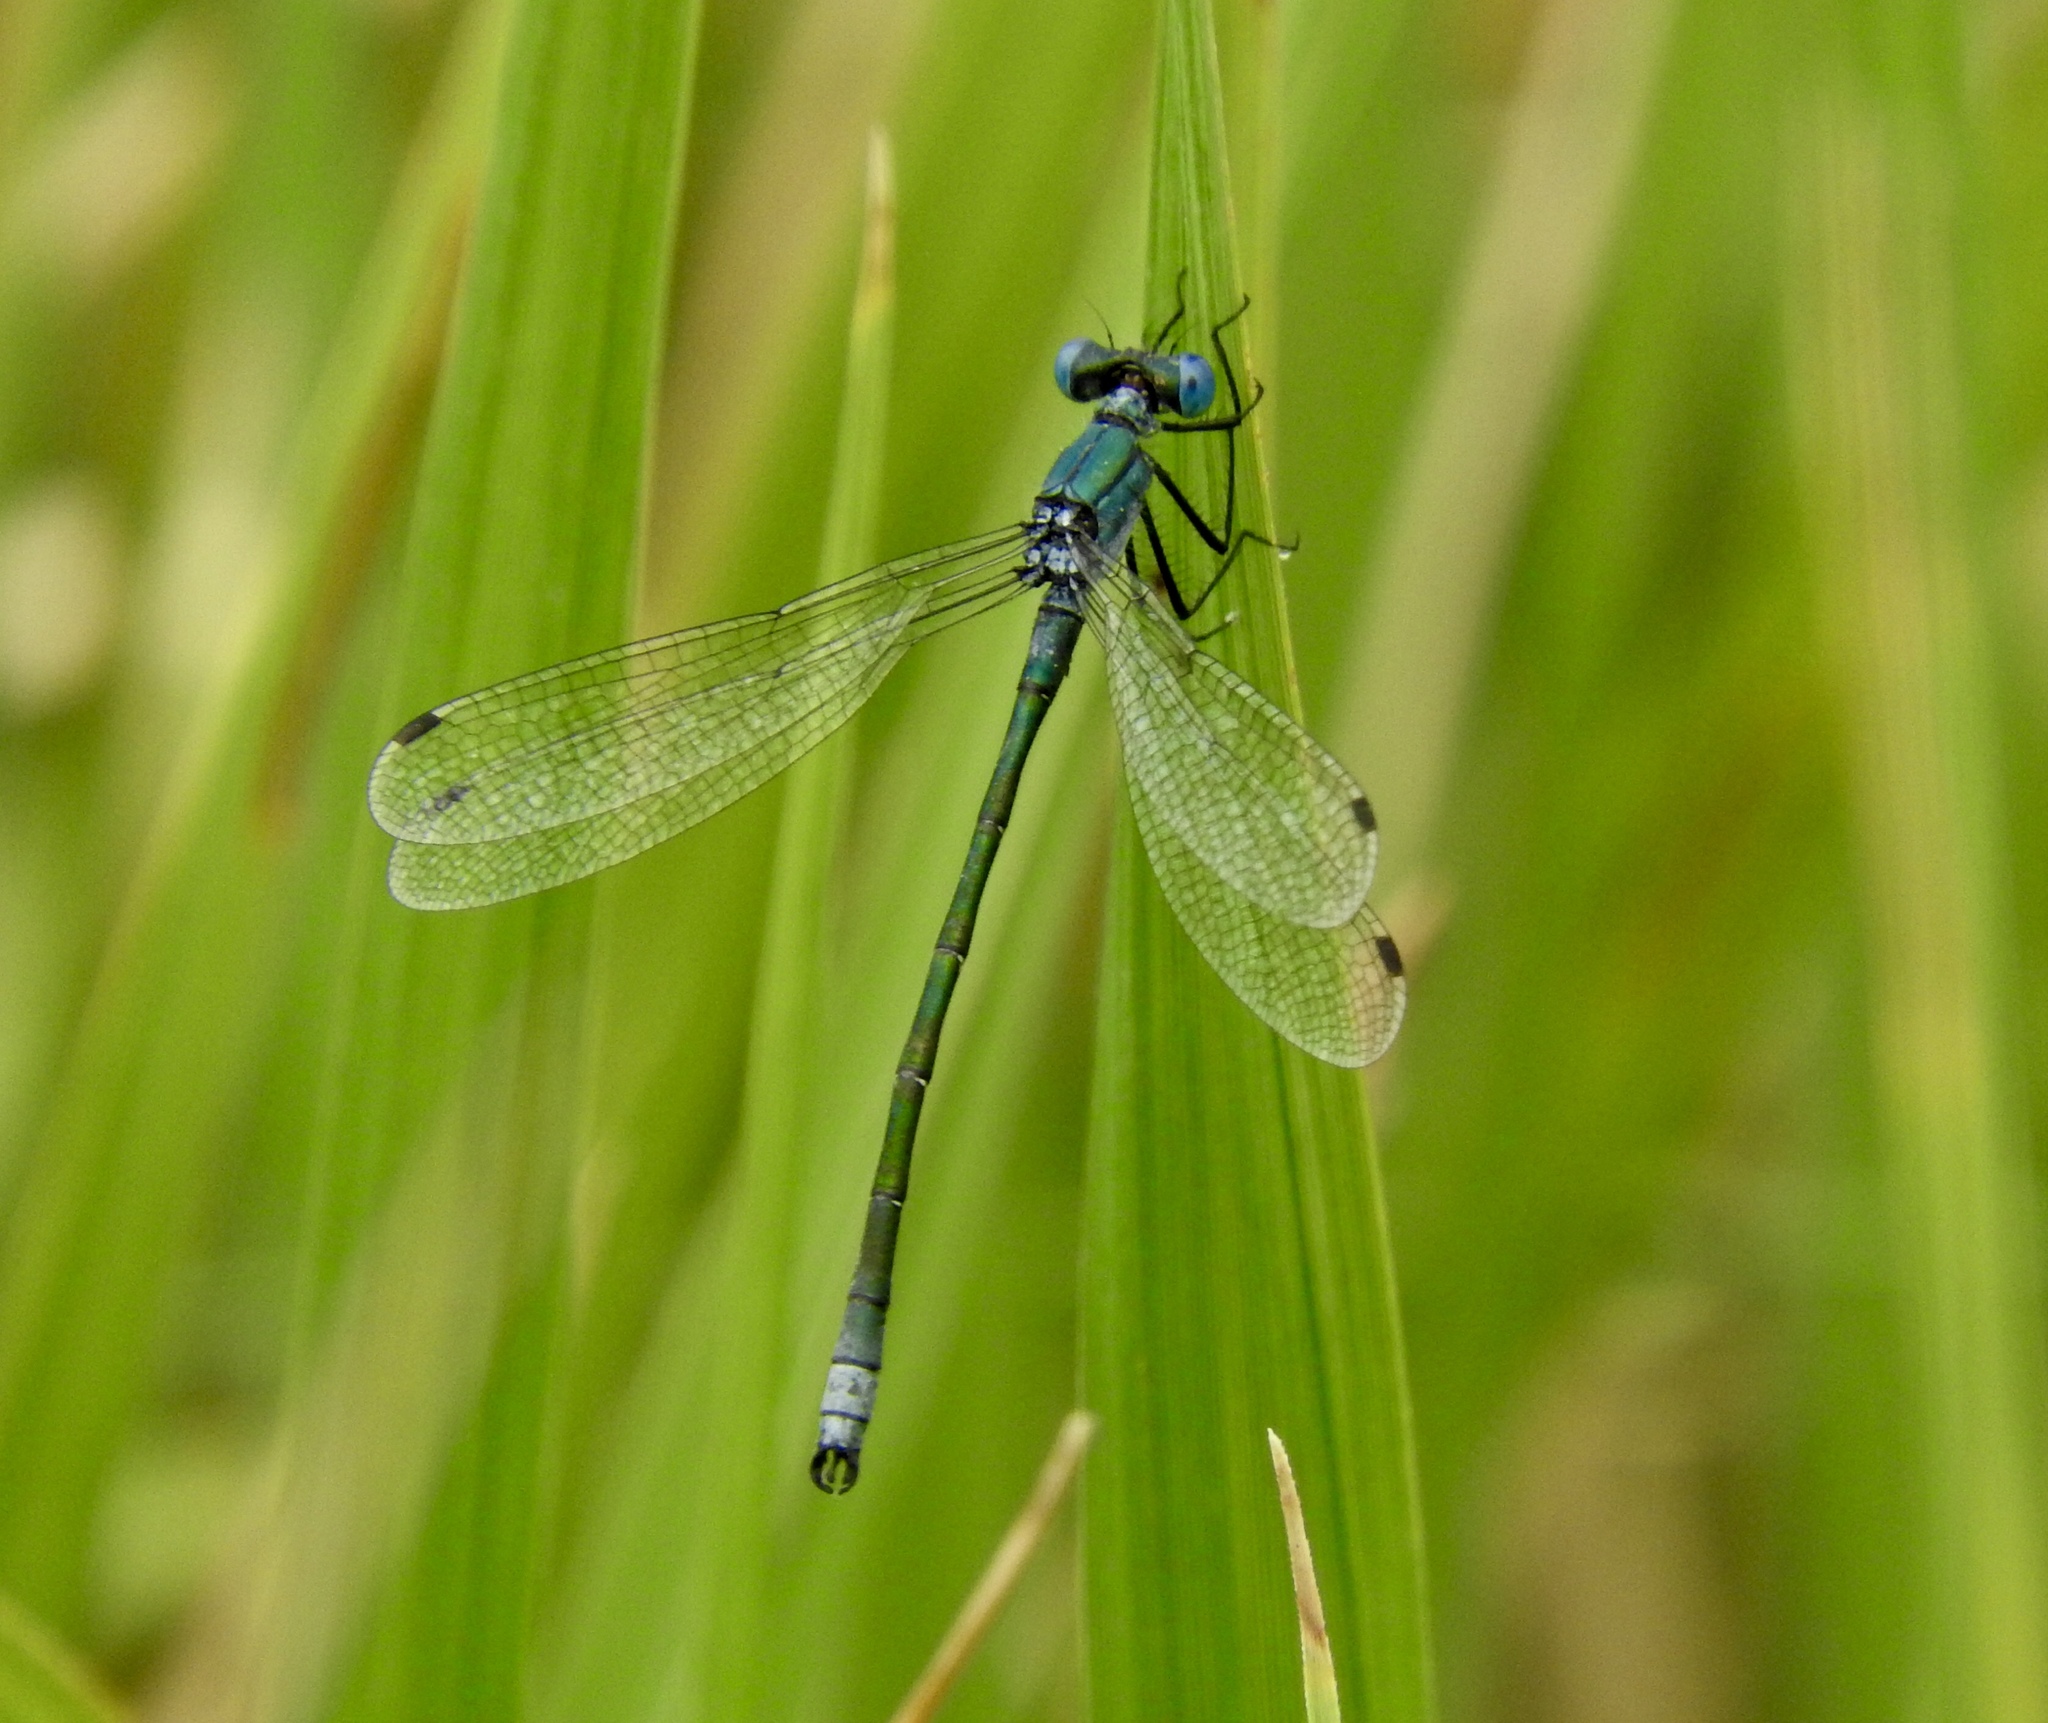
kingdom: Animalia
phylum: Arthropoda
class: Insecta
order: Odonata
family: Lestidae
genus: Lestes
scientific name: Lestes dryas
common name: Scarce emerald damselfly
